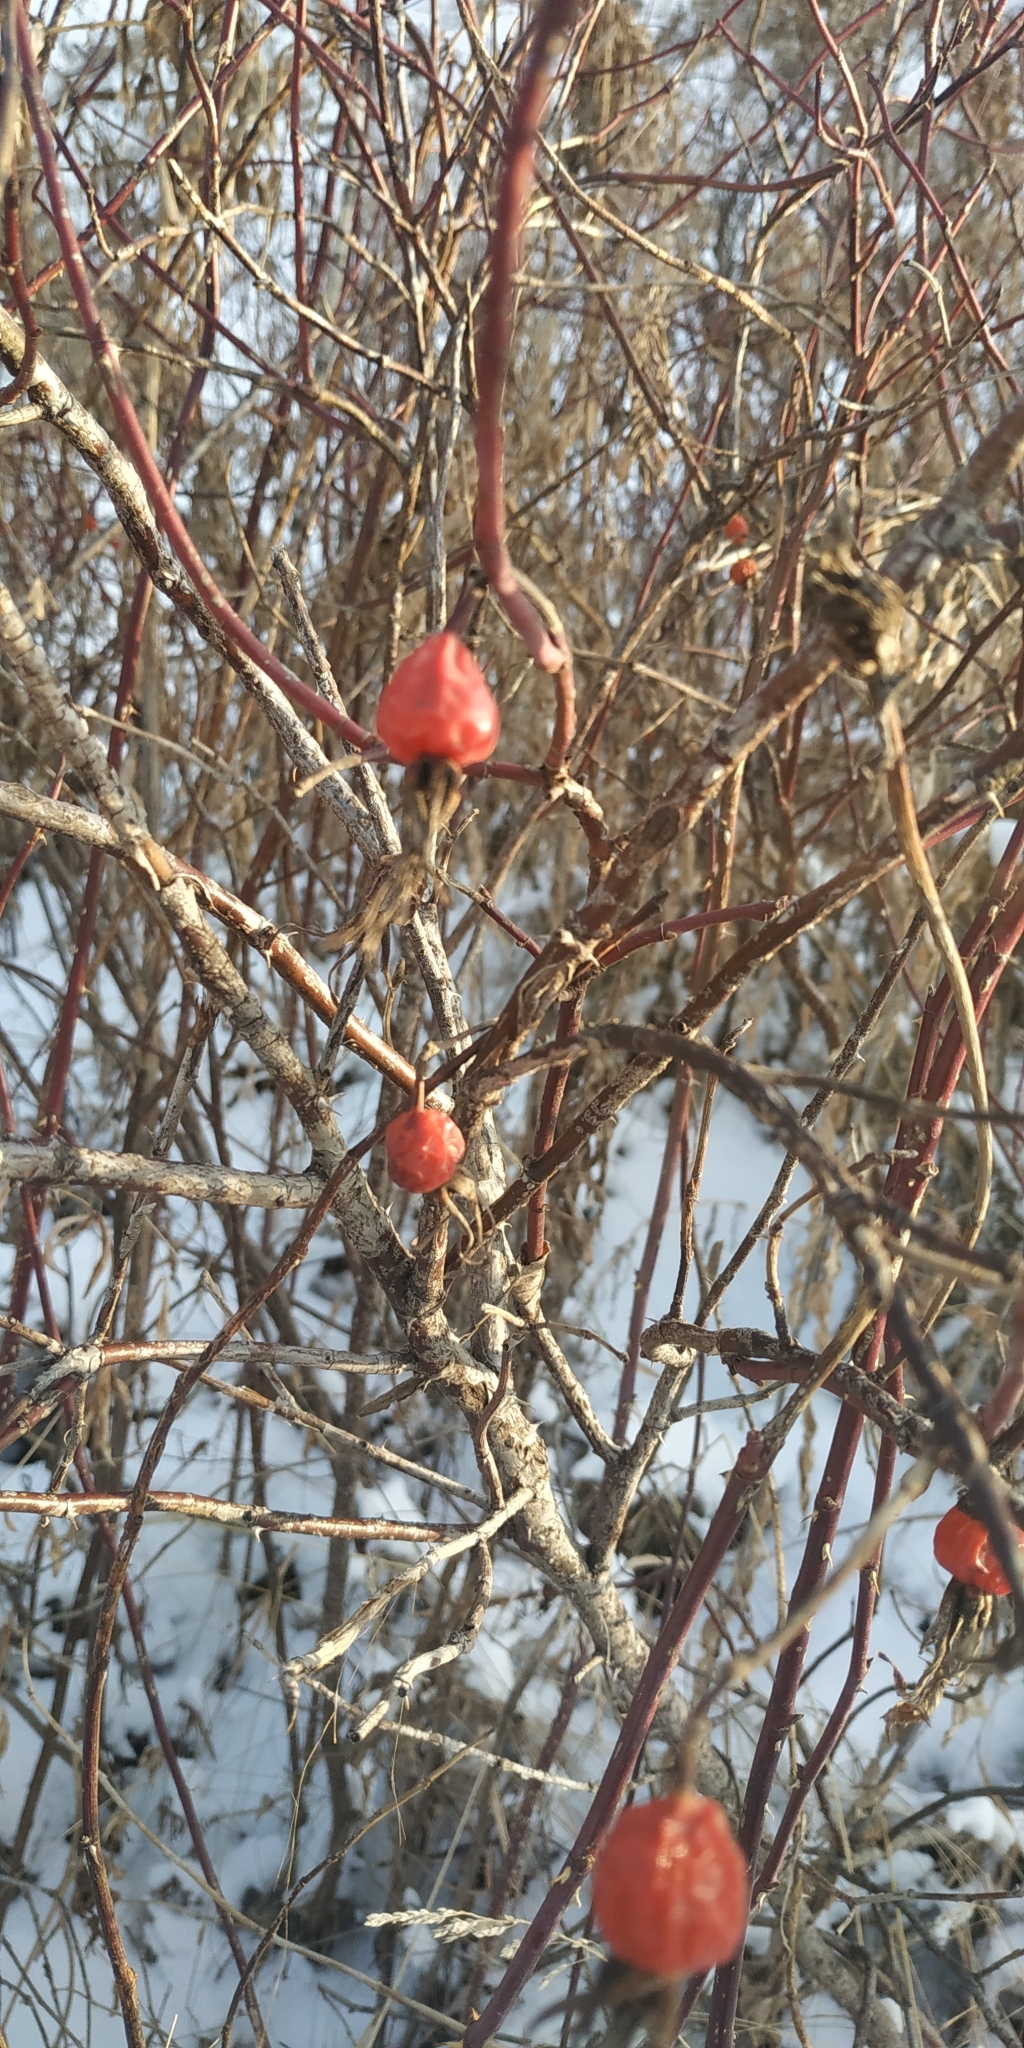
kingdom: Plantae
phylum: Tracheophyta
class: Magnoliopsida
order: Rosales
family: Rosaceae
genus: Rosa
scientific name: Rosa
